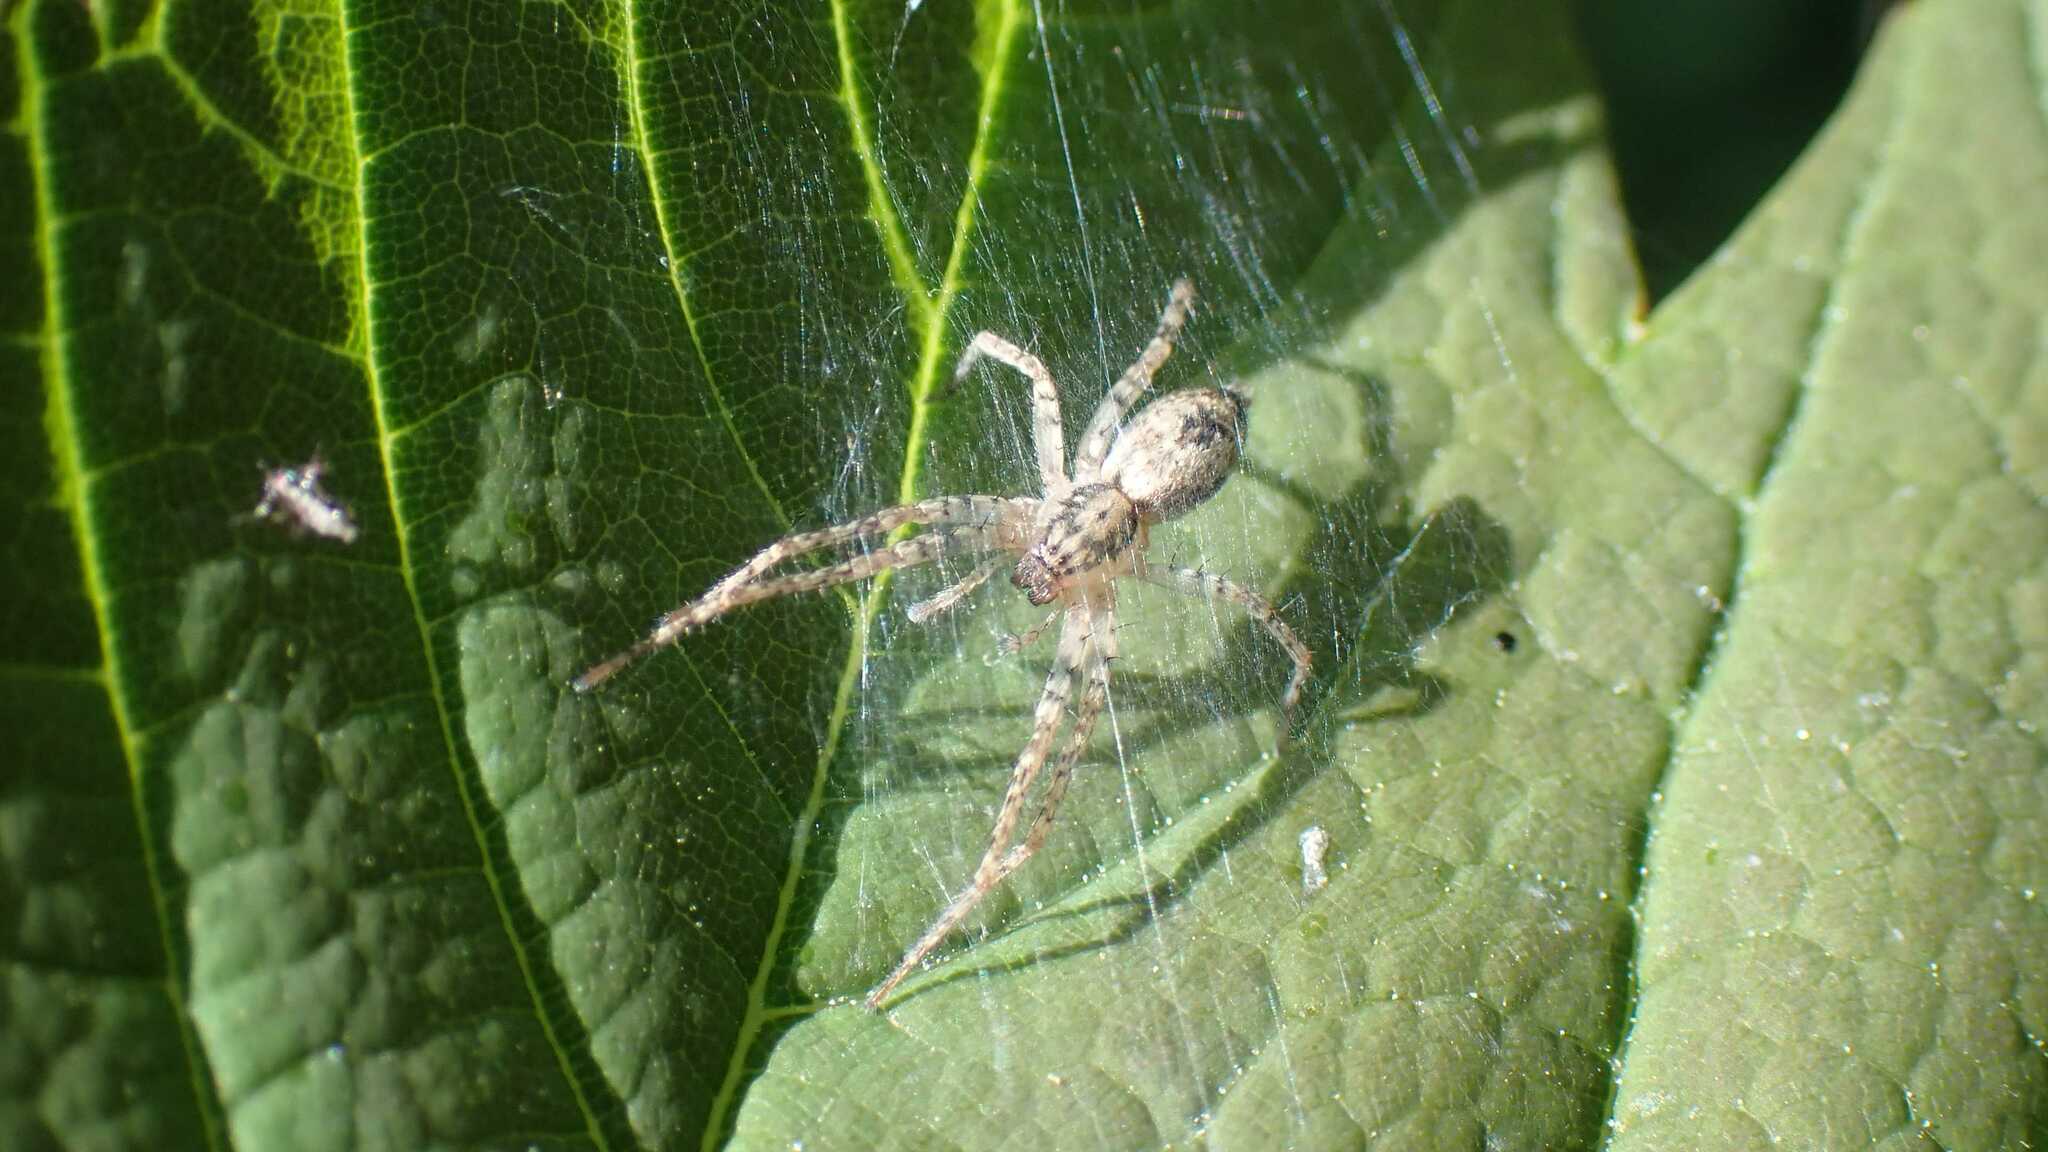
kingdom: Animalia
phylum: Arthropoda
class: Arachnida
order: Araneae
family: Anyphaenidae
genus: Anyphaena
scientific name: Anyphaena accentuata
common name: Buzzing spider
